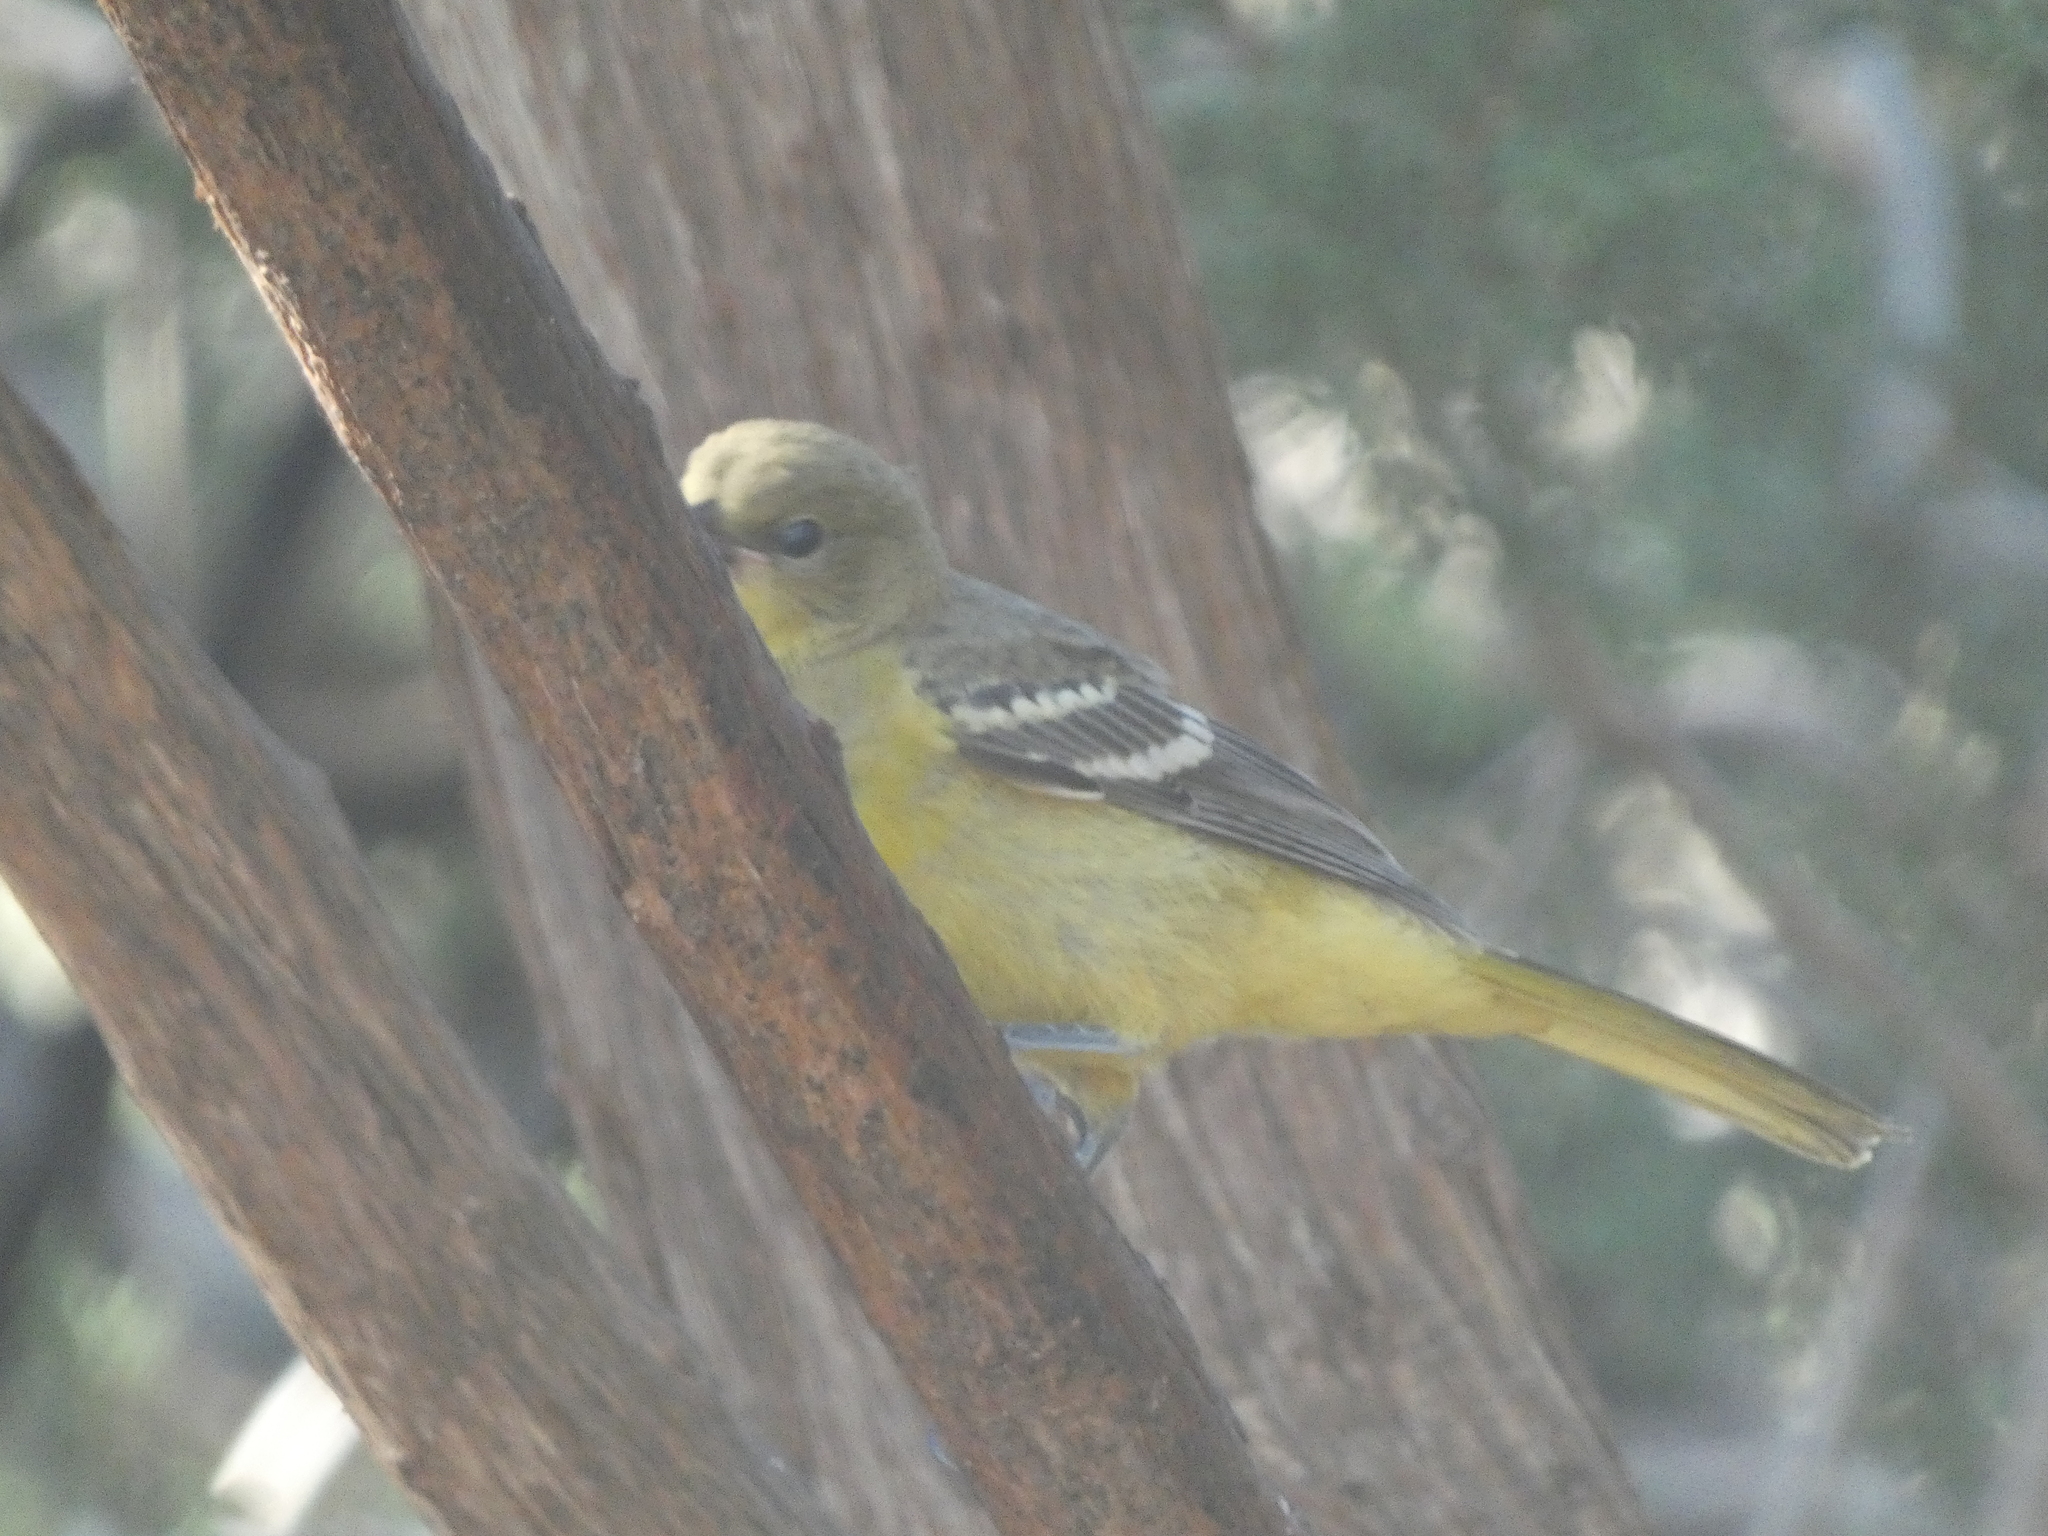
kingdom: Animalia
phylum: Chordata
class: Aves
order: Passeriformes
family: Icteridae
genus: Icterus
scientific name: Icterus parisorum
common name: Scott's oriole
